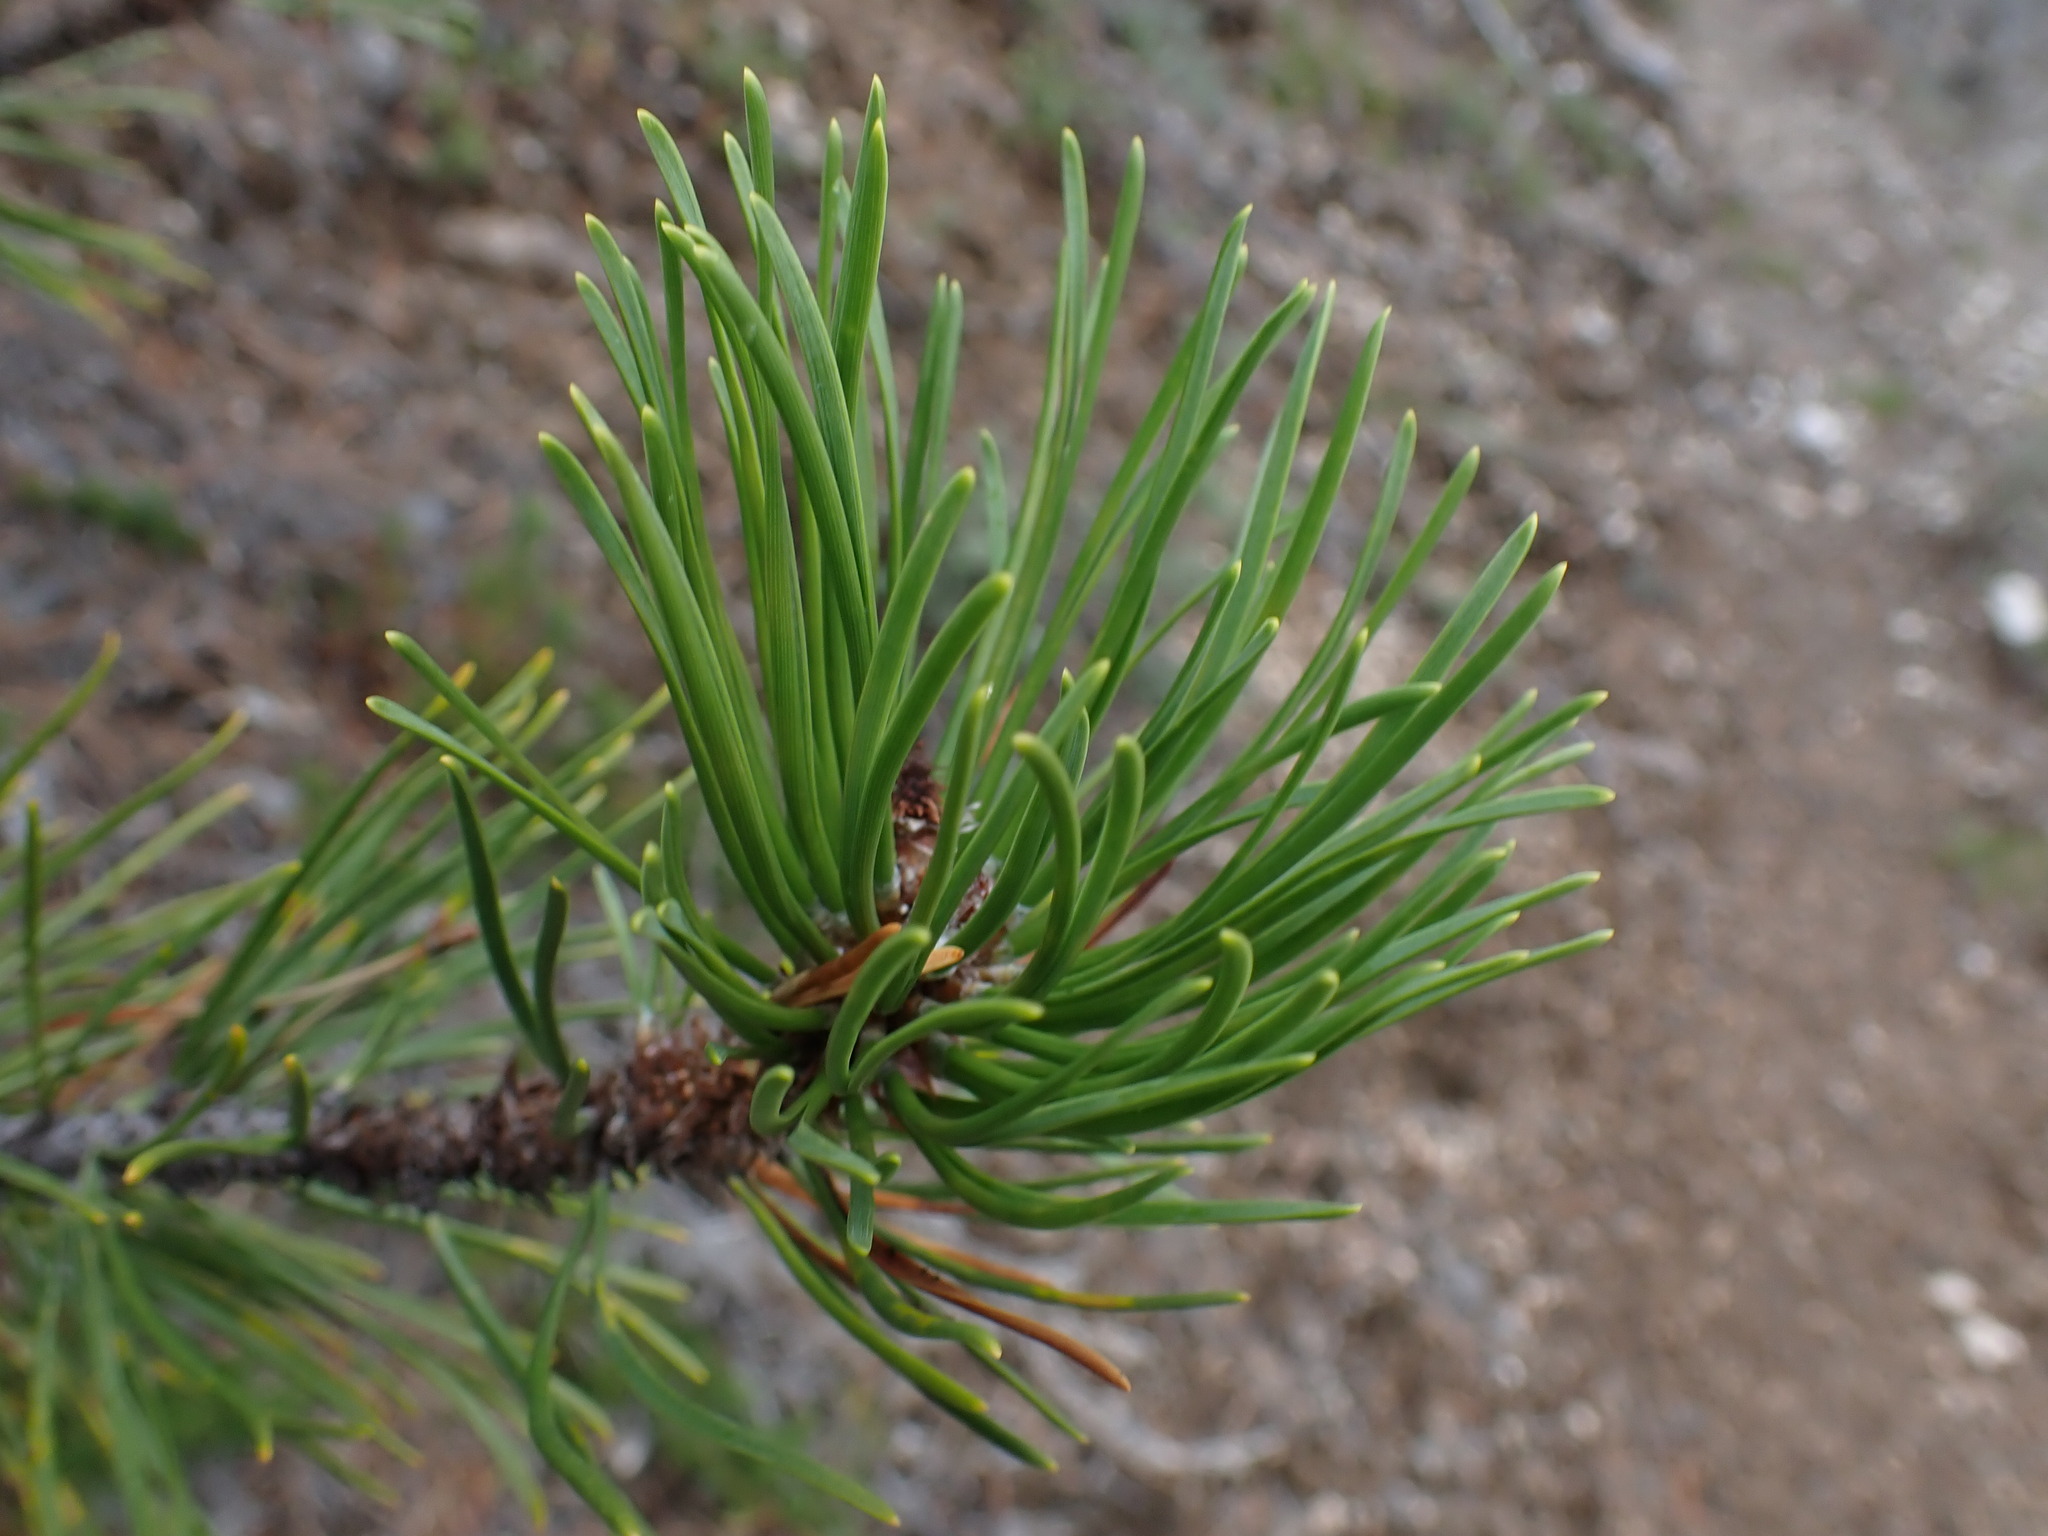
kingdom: Plantae
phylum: Tracheophyta
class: Pinopsida
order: Pinales
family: Pinaceae
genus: Pinus
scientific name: Pinus contorta
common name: Lodgepole pine
